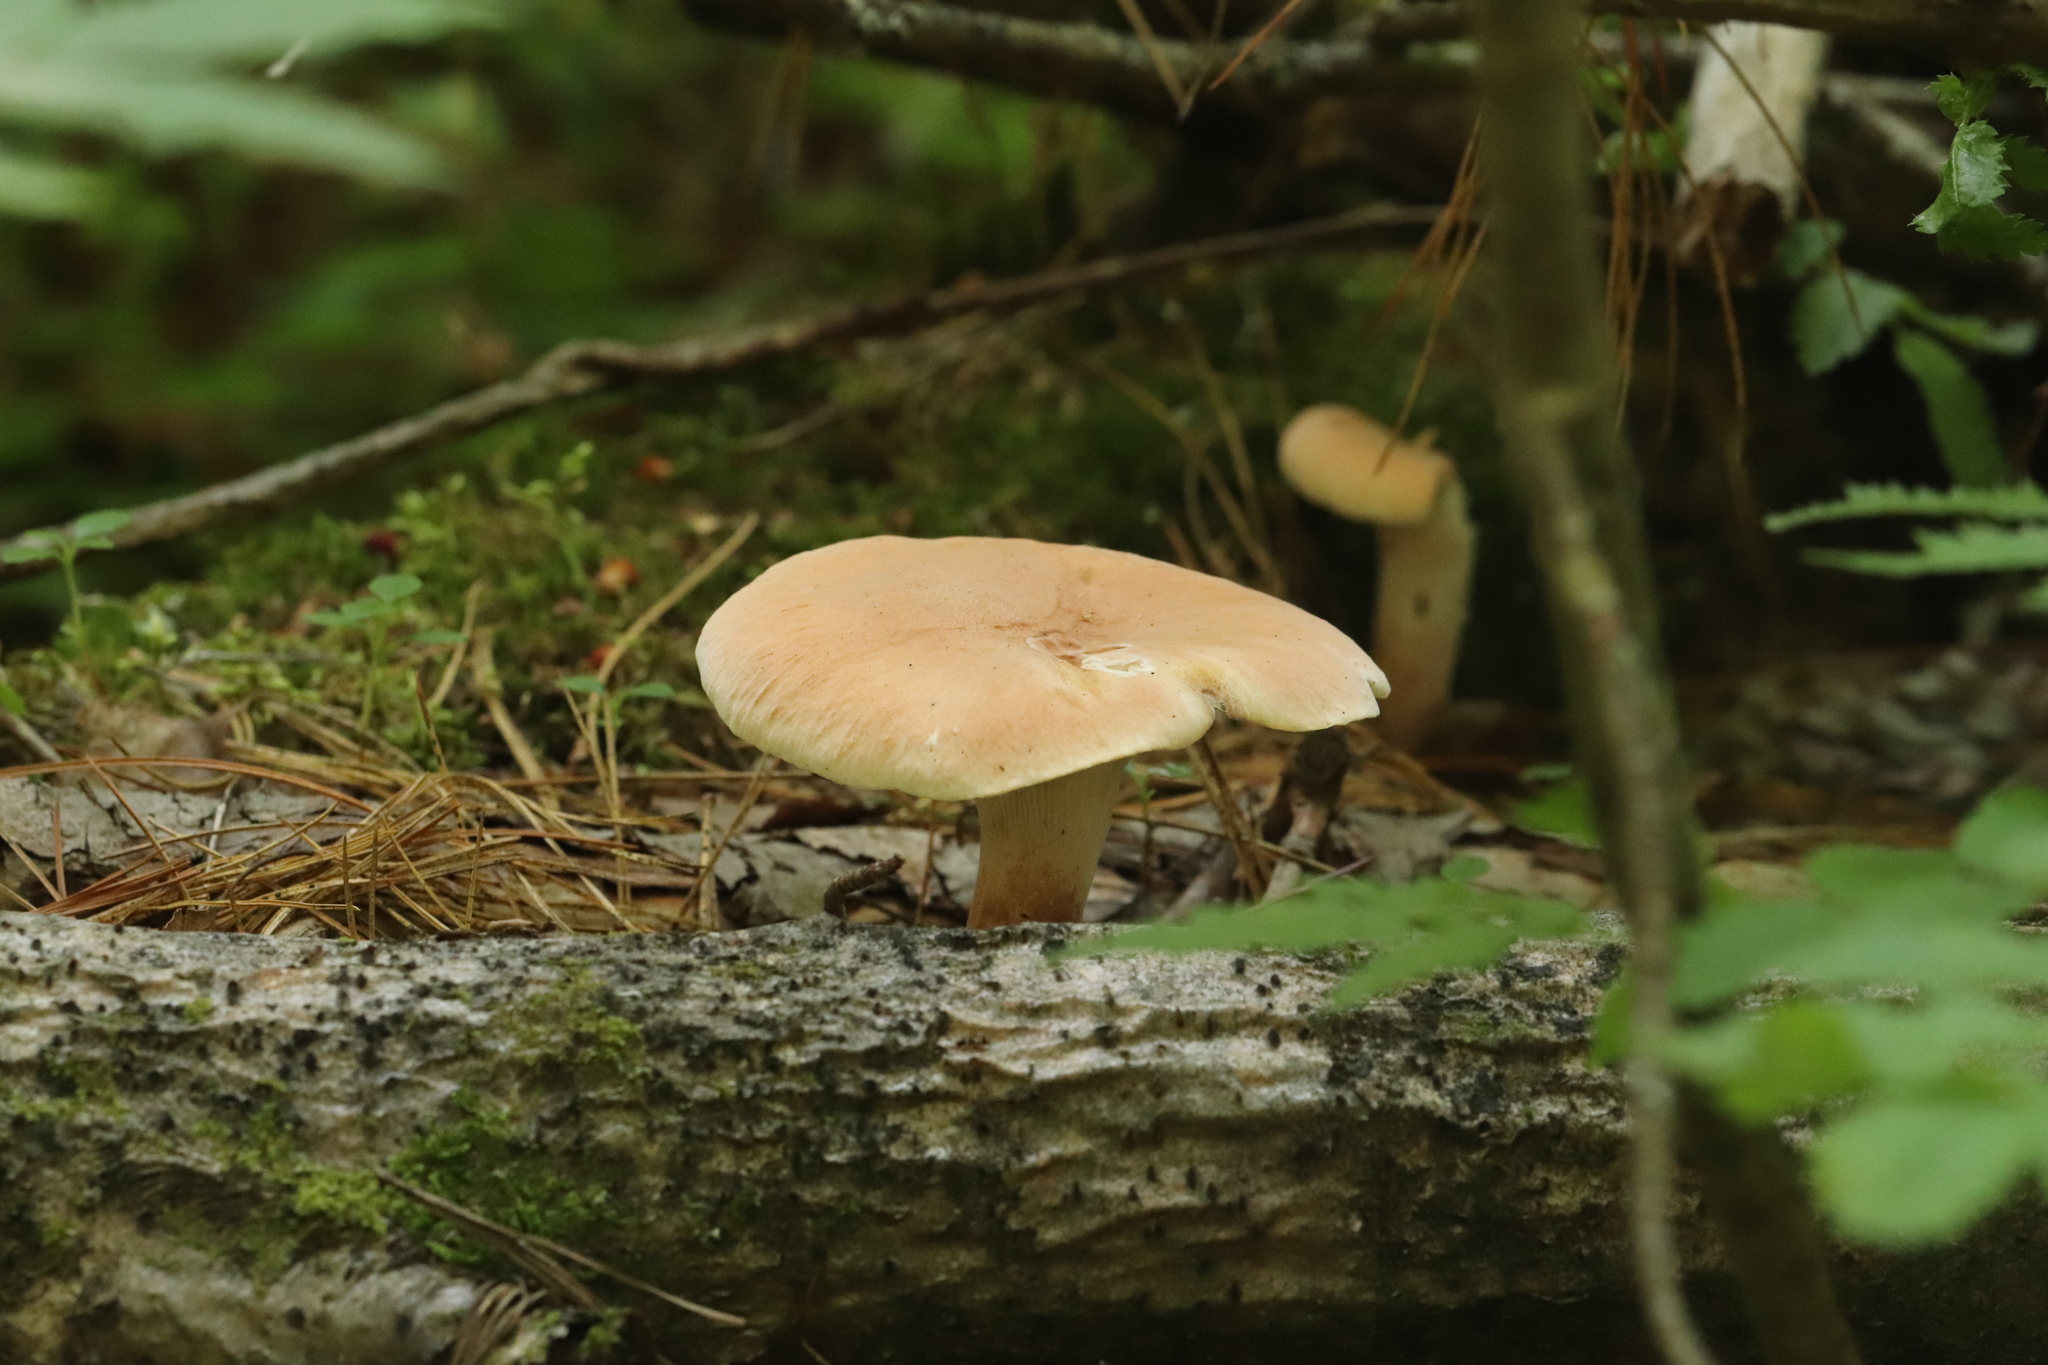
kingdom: Fungi
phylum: Basidiomycota
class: Agaricomycetes
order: Gloeophyllales
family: Gloeophyllaceae
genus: Neolentinus
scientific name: Neolentinus cyathiformis
